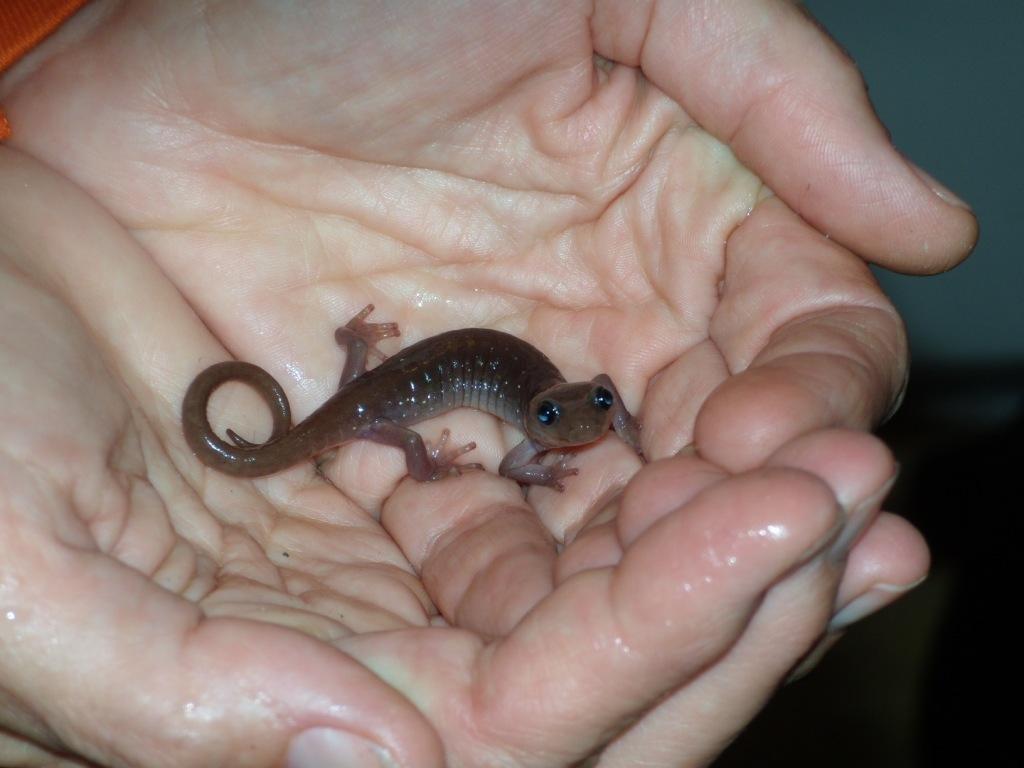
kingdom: Animalia
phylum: Chordata
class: Amphibia
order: Caudata
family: Plethodontidae
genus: Aneides
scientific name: Aneides lugubris
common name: Arboreal salamander
